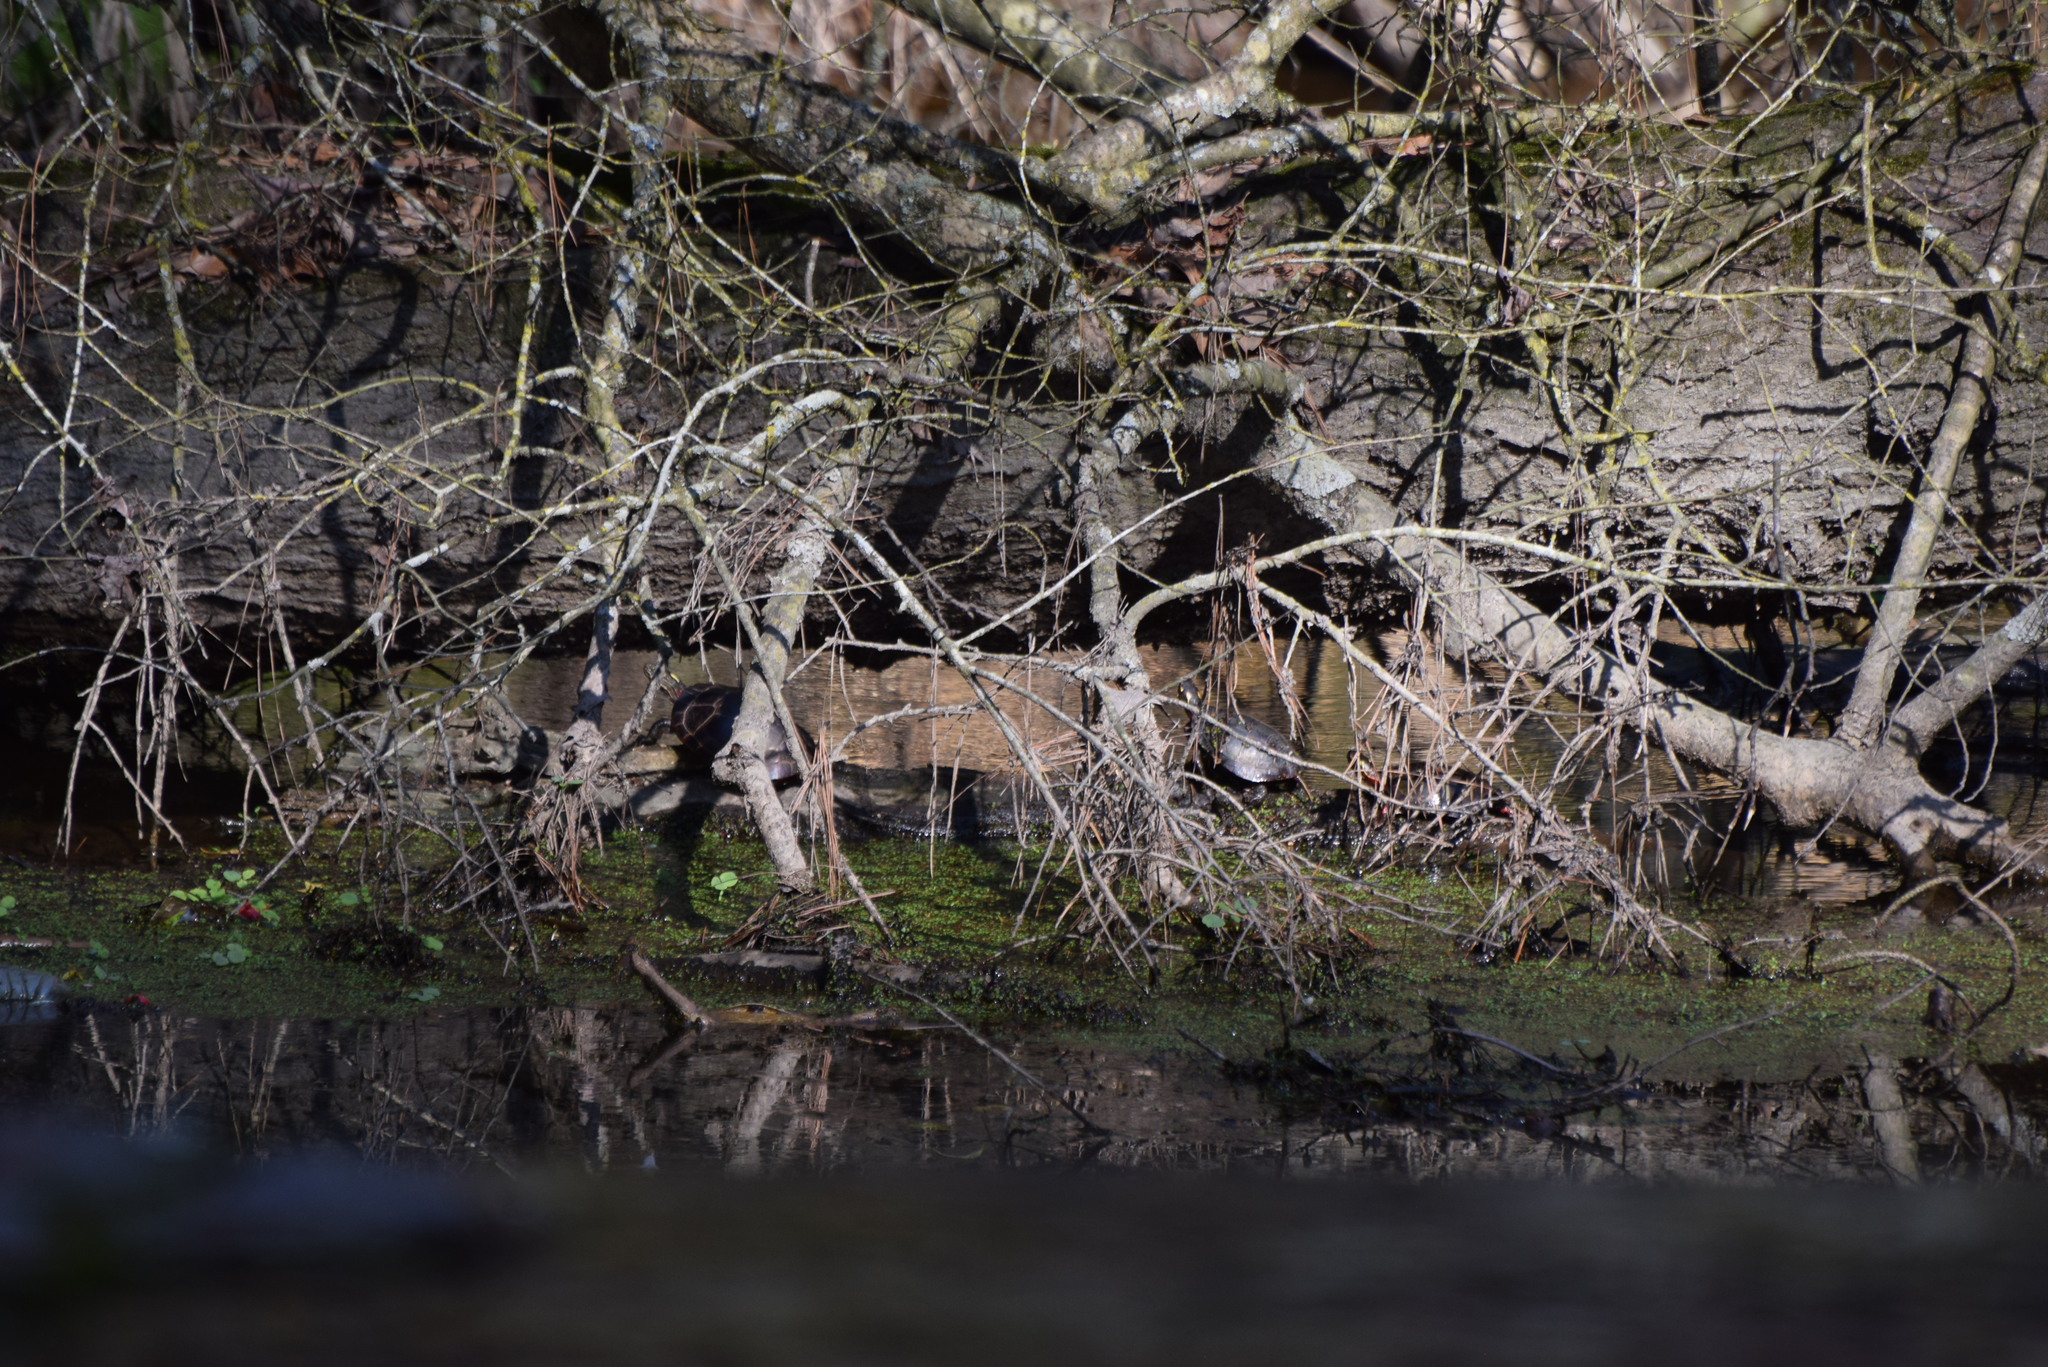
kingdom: Animalia
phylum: Chordata
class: Testudines
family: Emydidae
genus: Chrysemys
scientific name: Chrysemys picta
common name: Painted turtle
